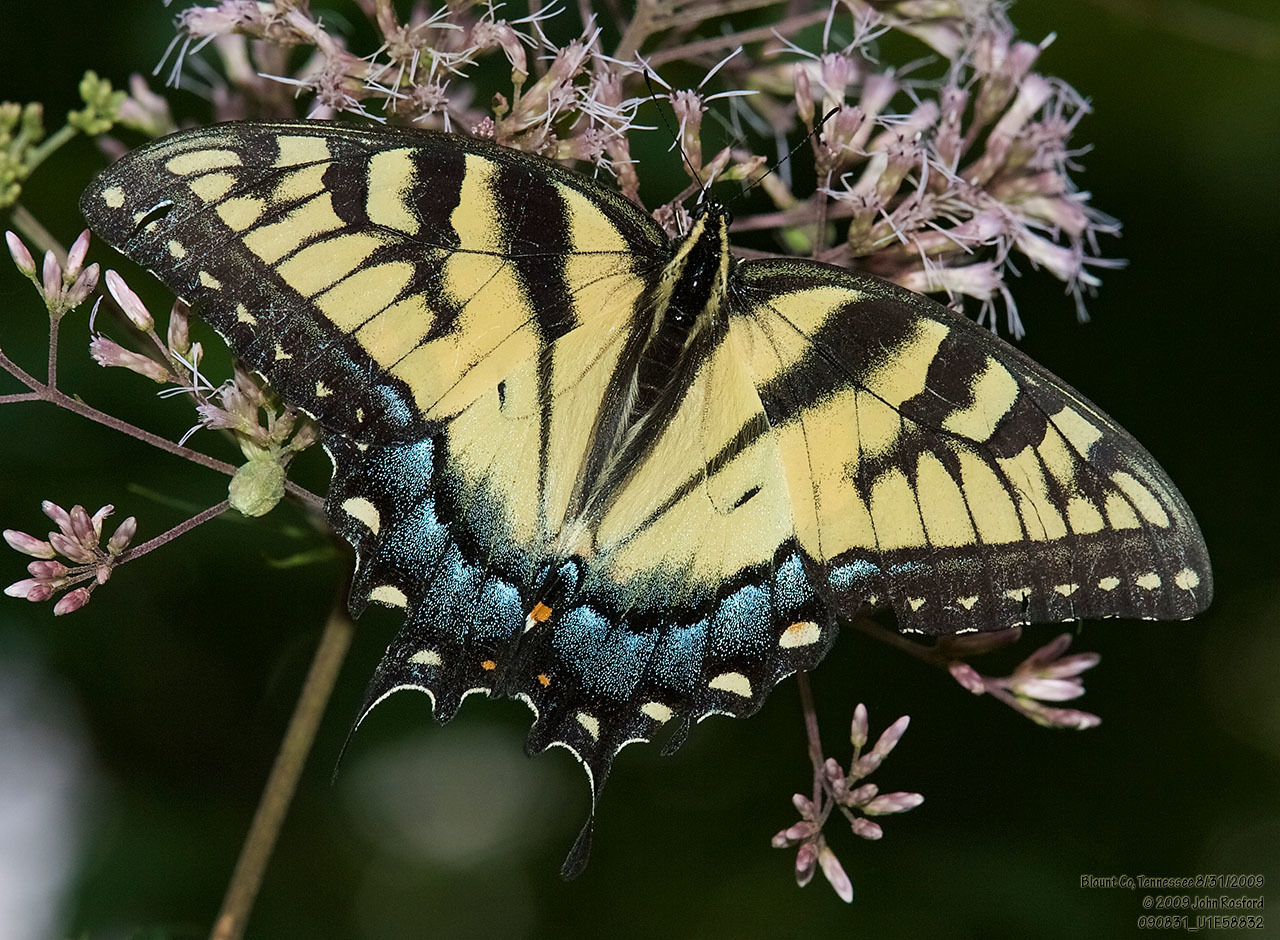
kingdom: Animalia
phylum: Arthropoda
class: Insecta
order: Lepidoptera
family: Papilionidae
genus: Papilio
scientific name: Papilio glaucus
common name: Tiger swallowtail
